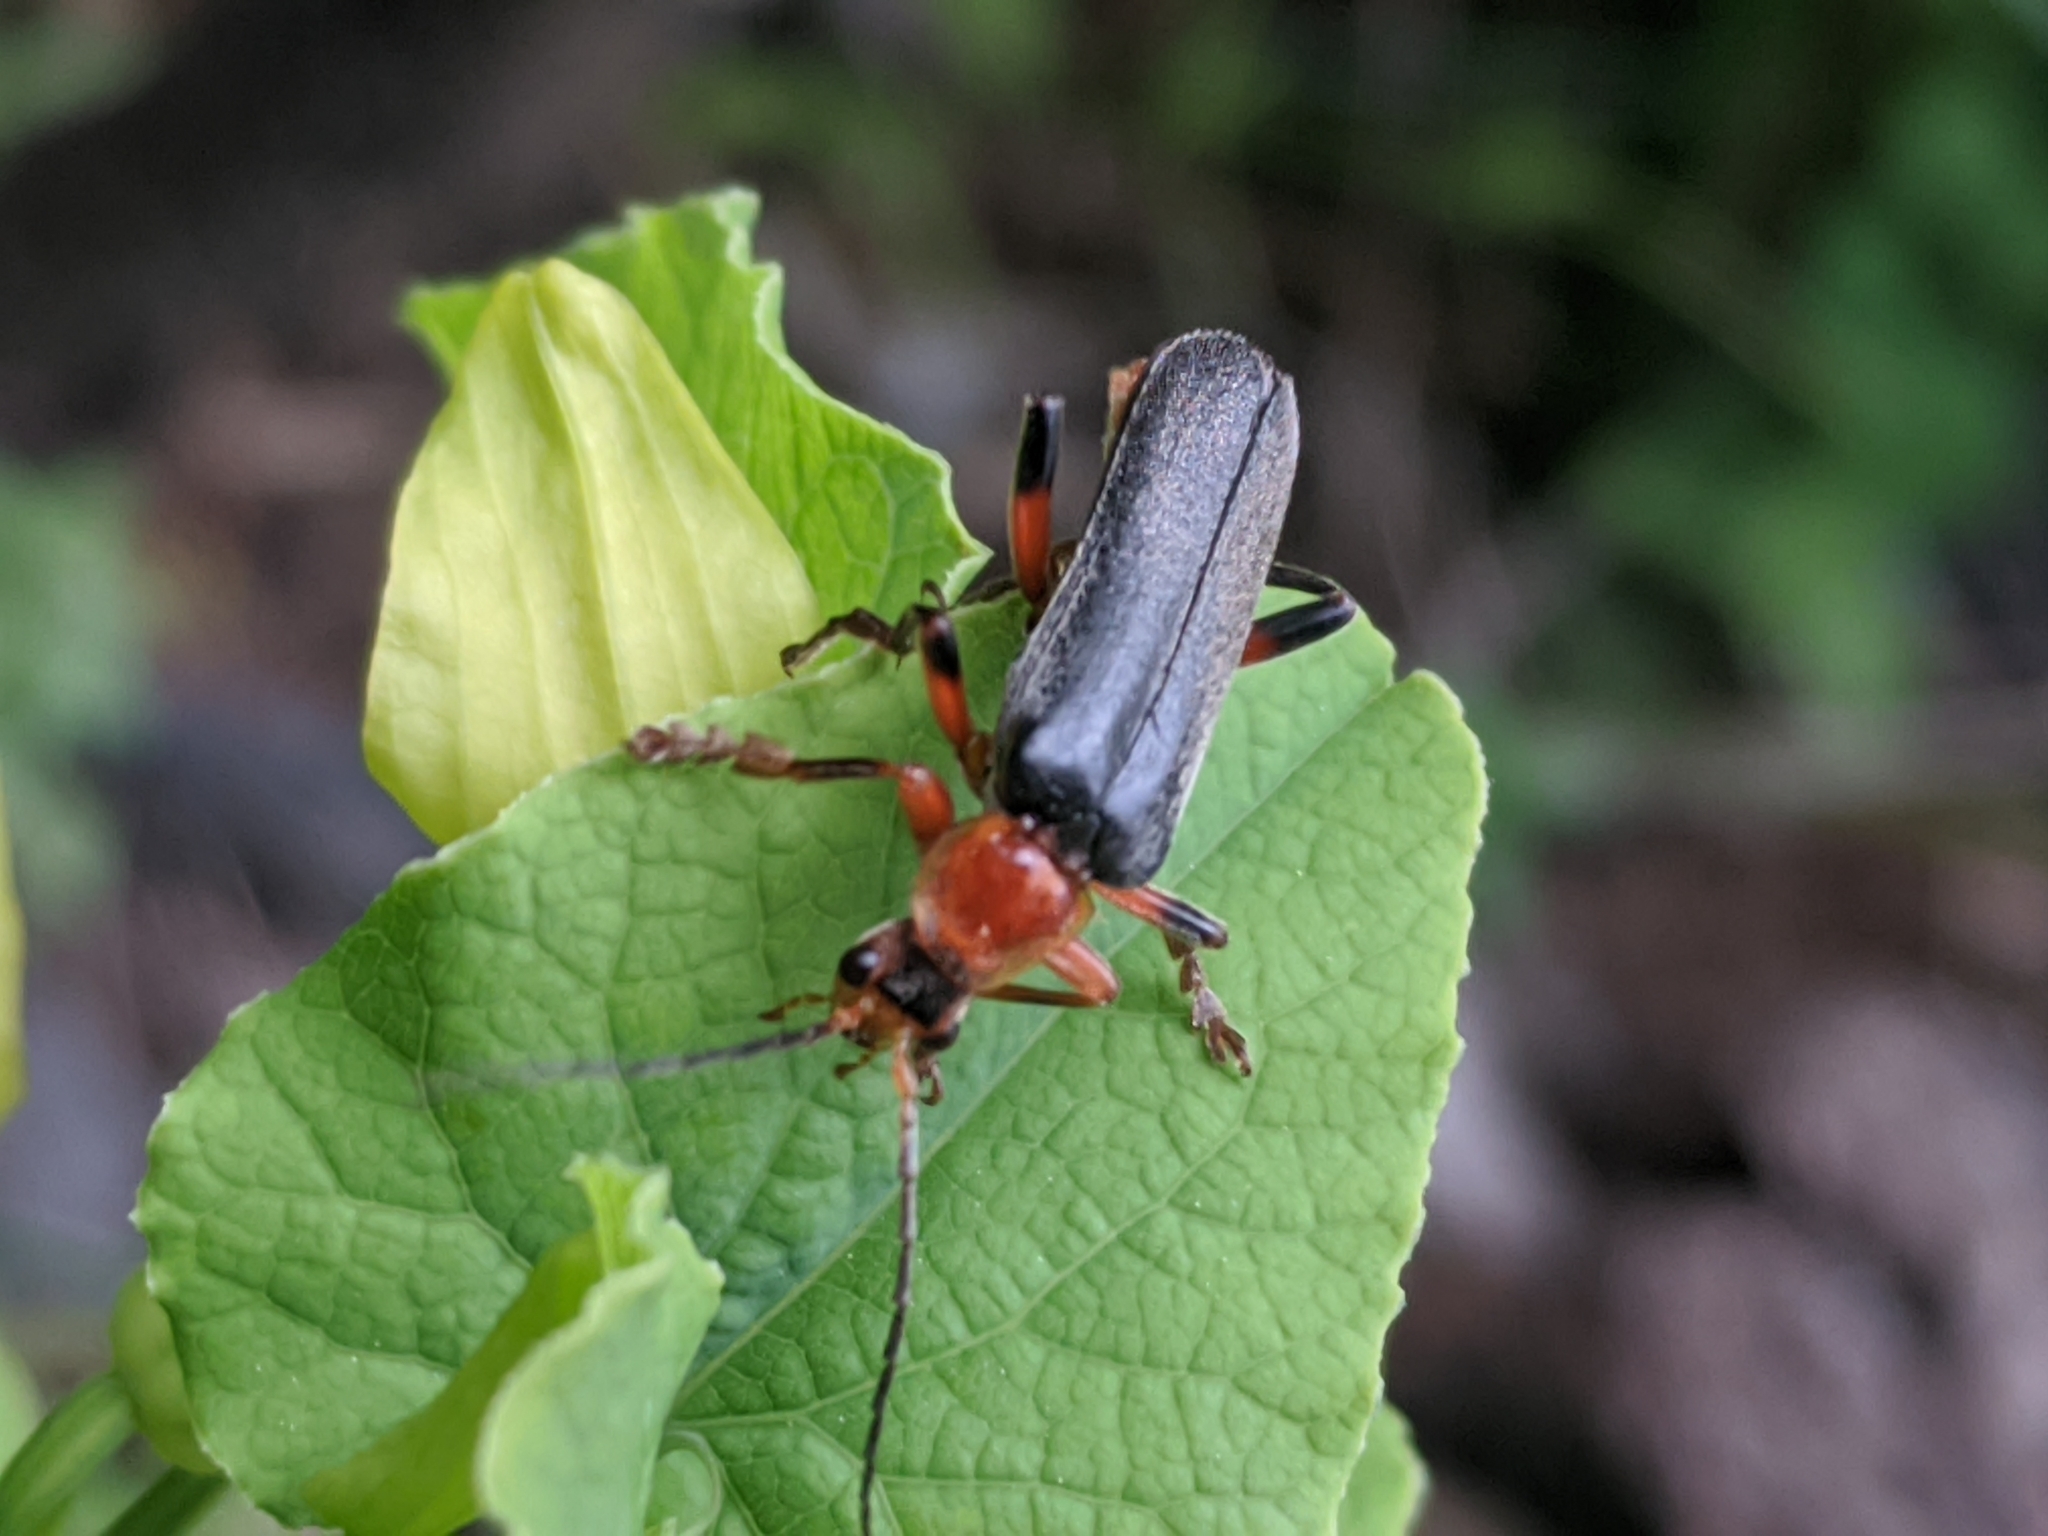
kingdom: Animalia
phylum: Arthropoda
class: Insecta
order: Coleoptera
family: Cantharidae
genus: Cantharis
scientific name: Cantharis livida
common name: Livid soldier beetle
